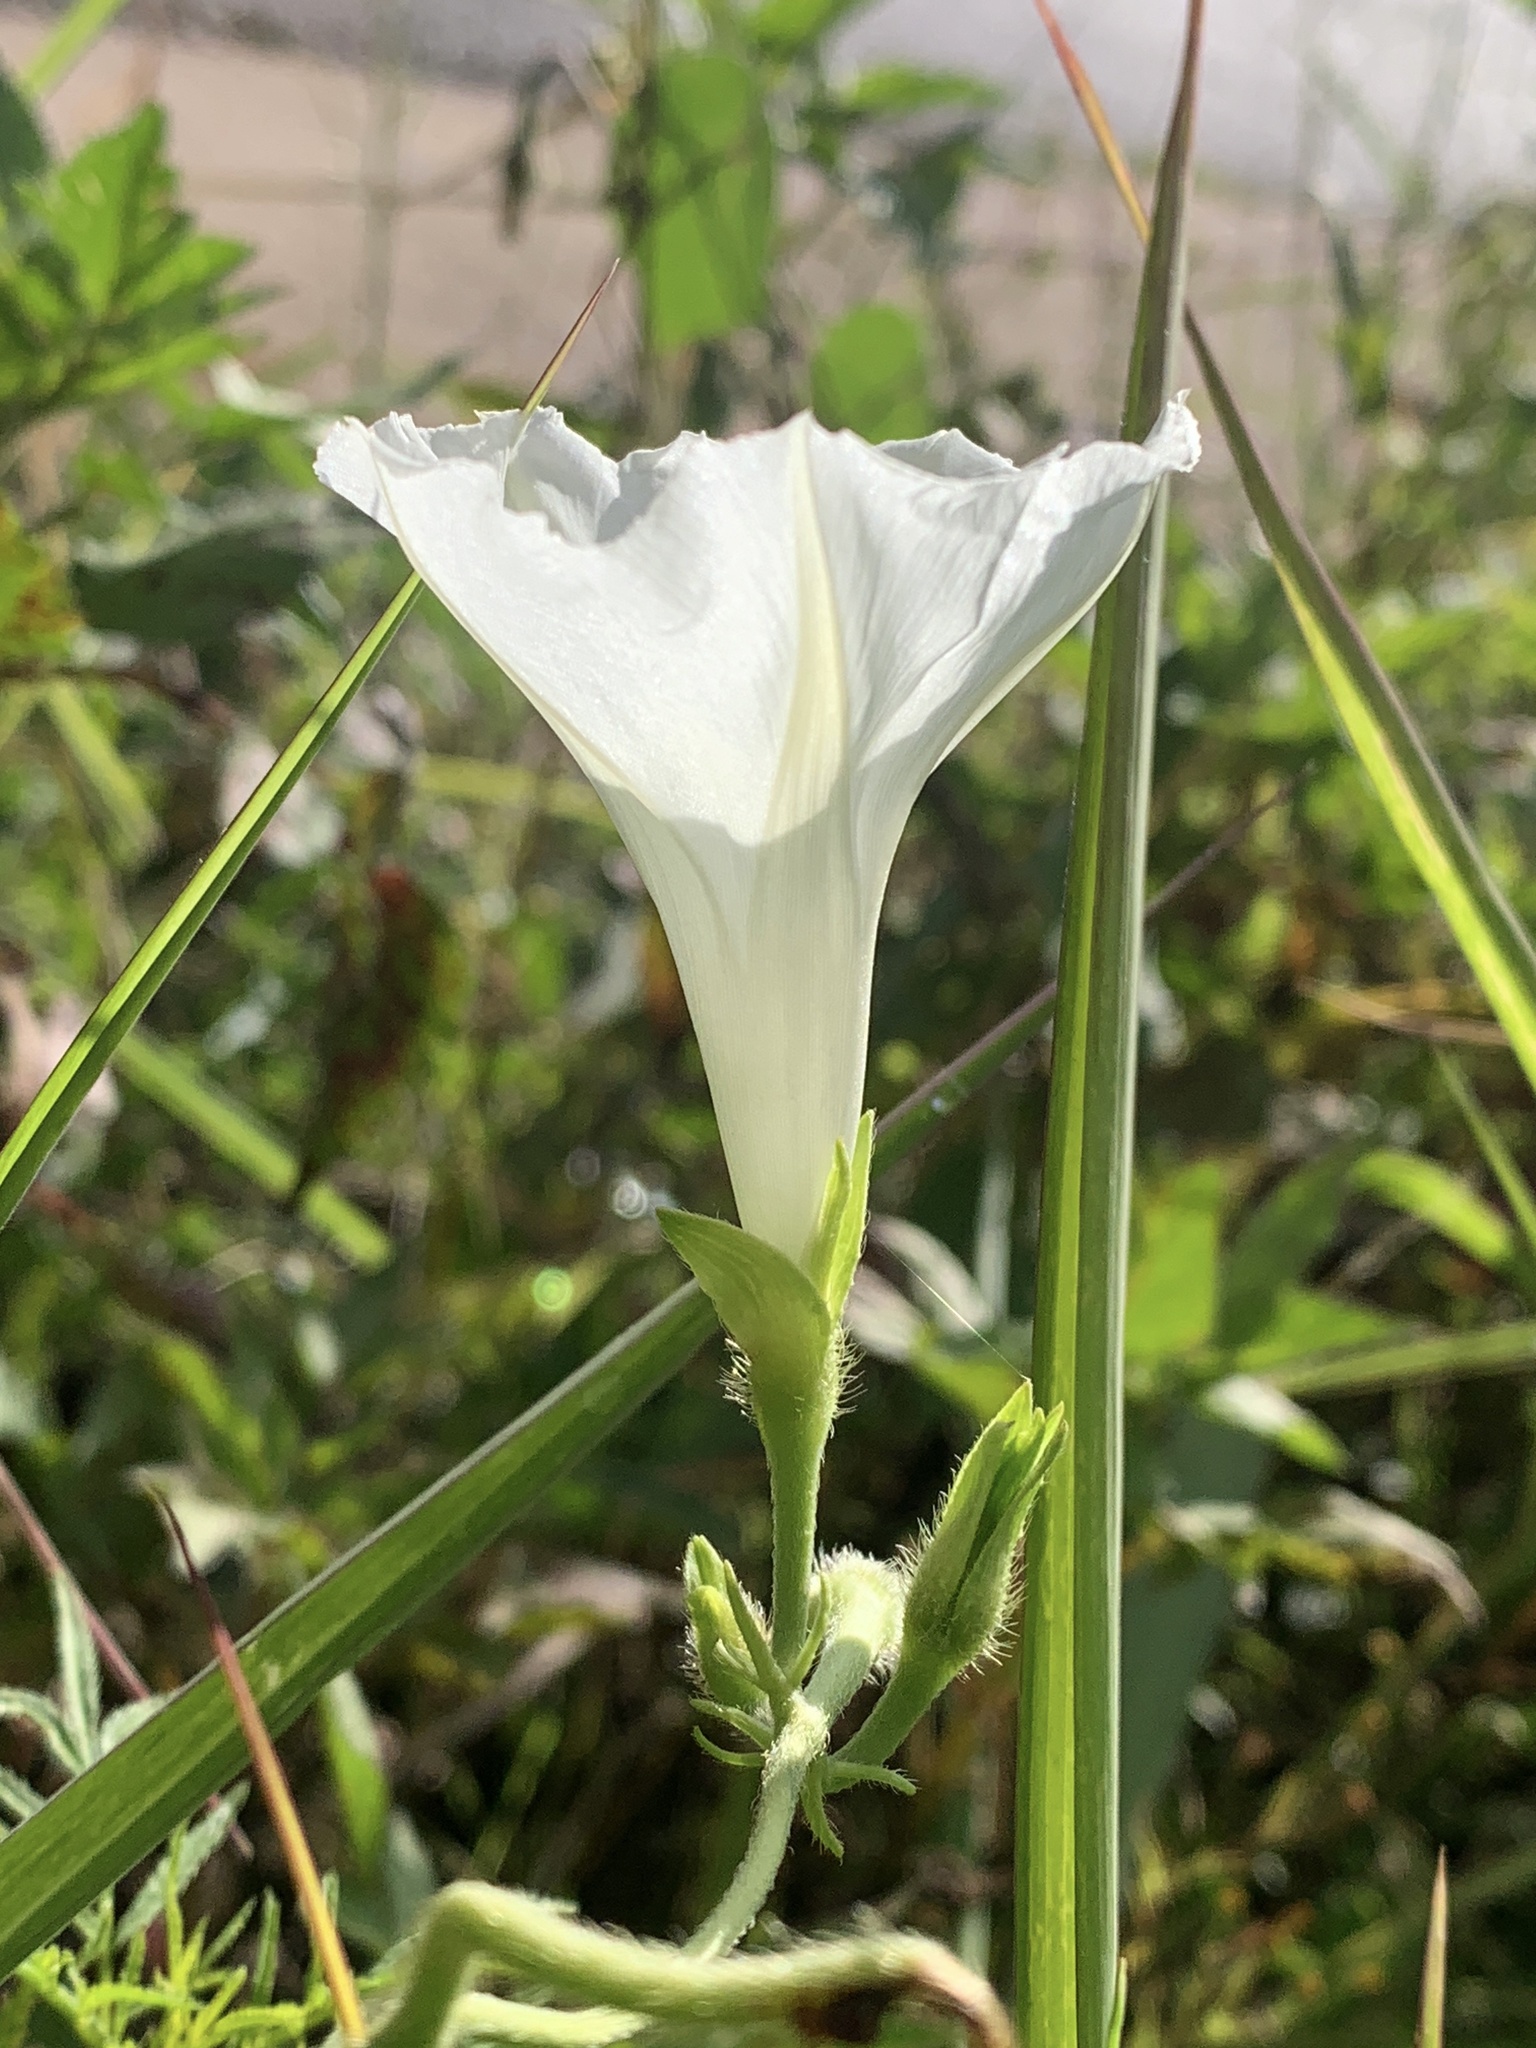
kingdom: Plantae
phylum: Tracheophyta
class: Magnoliopsida
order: Solanales
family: Convolvulaceae
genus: Ipomoea
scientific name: Ipomoea purpurea
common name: Common morning-glory
